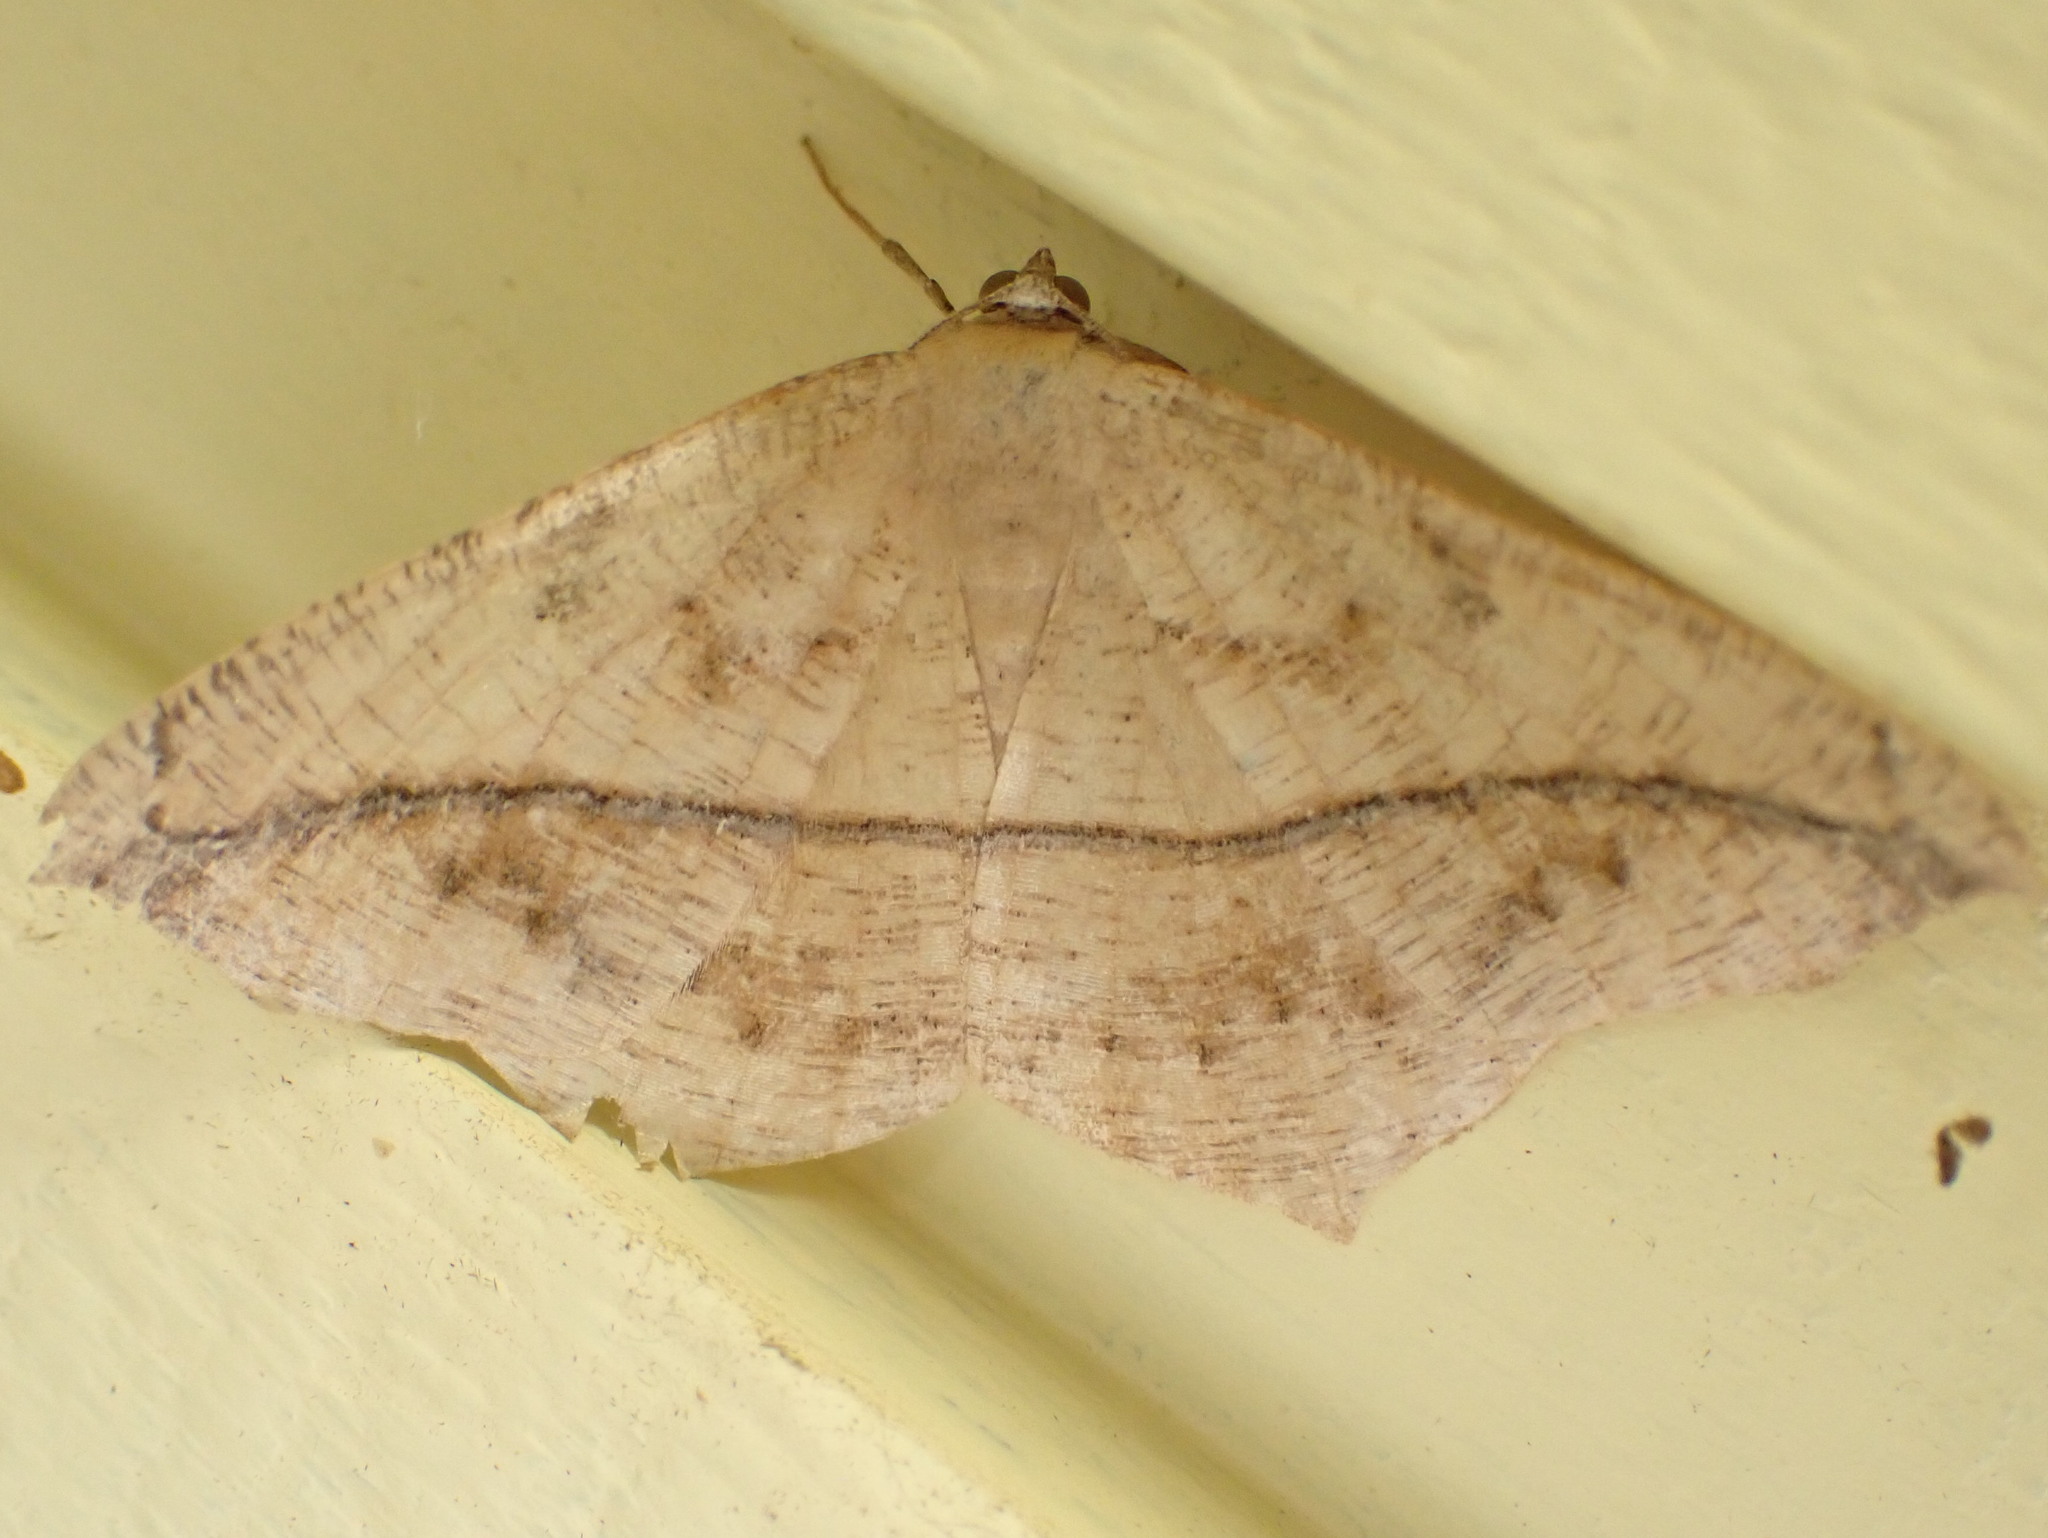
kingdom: Animalia
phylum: Arthropoda
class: Insecta
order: Lepidoptera
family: Geometridae
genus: Prochoerodes
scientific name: Prochoerodes lineola
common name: Large maple spanworm
